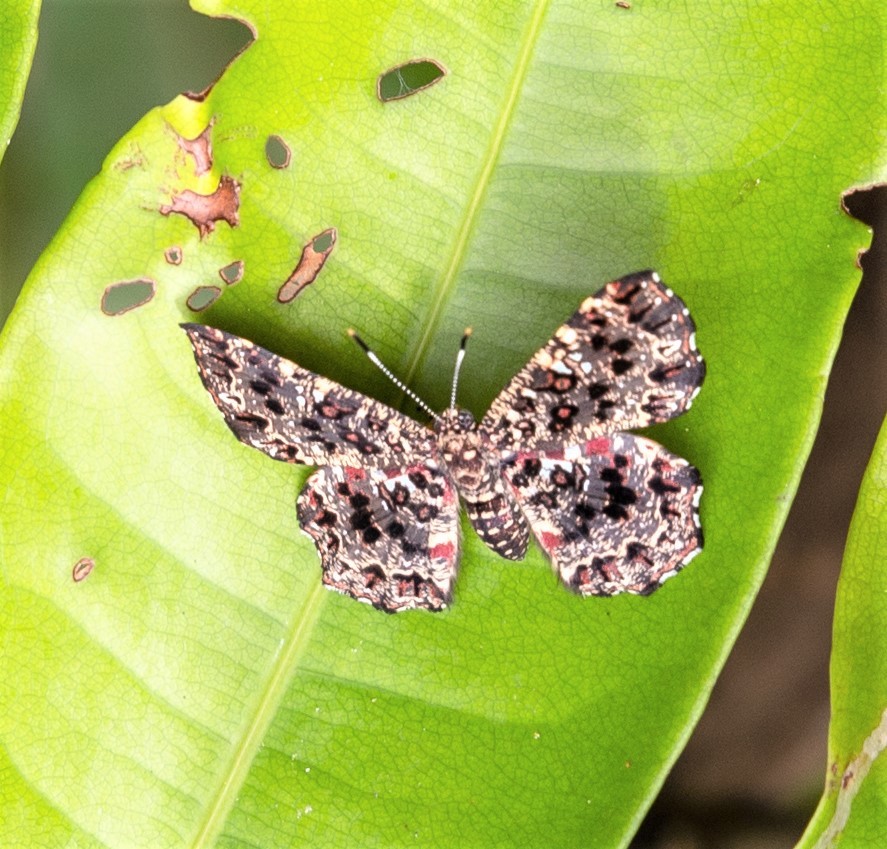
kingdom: Animalia
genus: Calydna
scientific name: Calydna thersander
